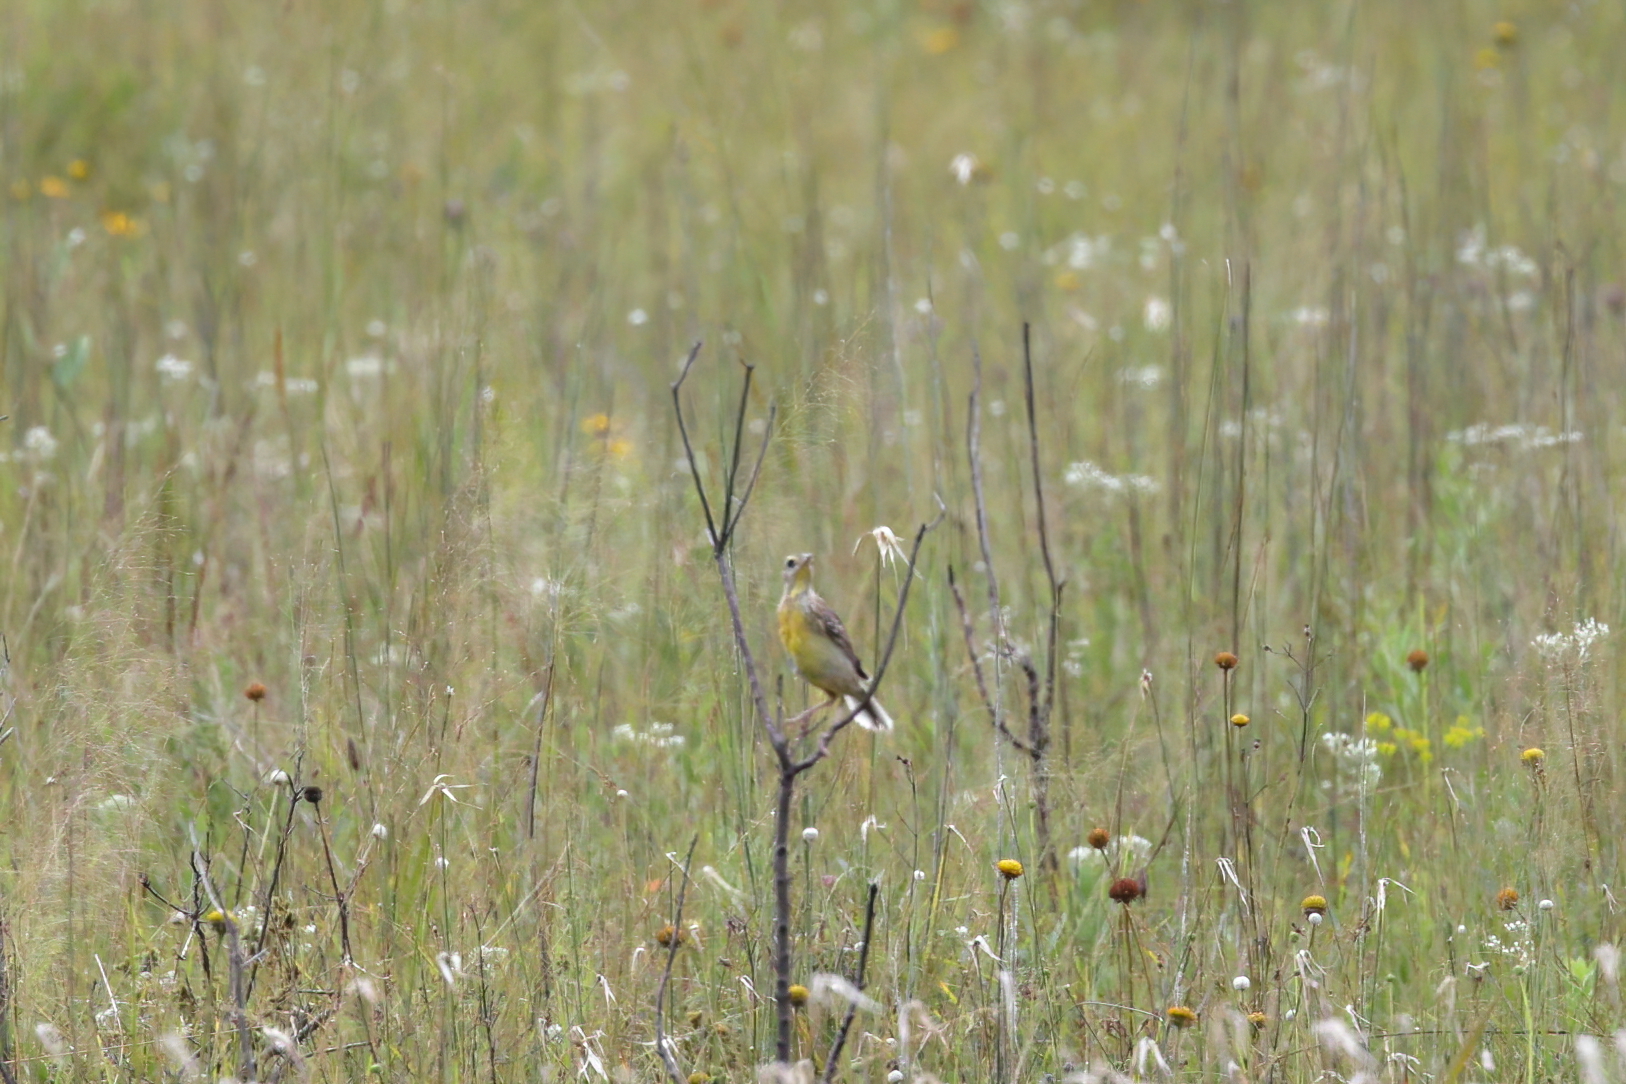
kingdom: Animalia
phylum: Chordata
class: Aves
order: Passeriformes
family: Icteridae
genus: Sturnella
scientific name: Sturnella magna
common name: Eastern meadowlark
